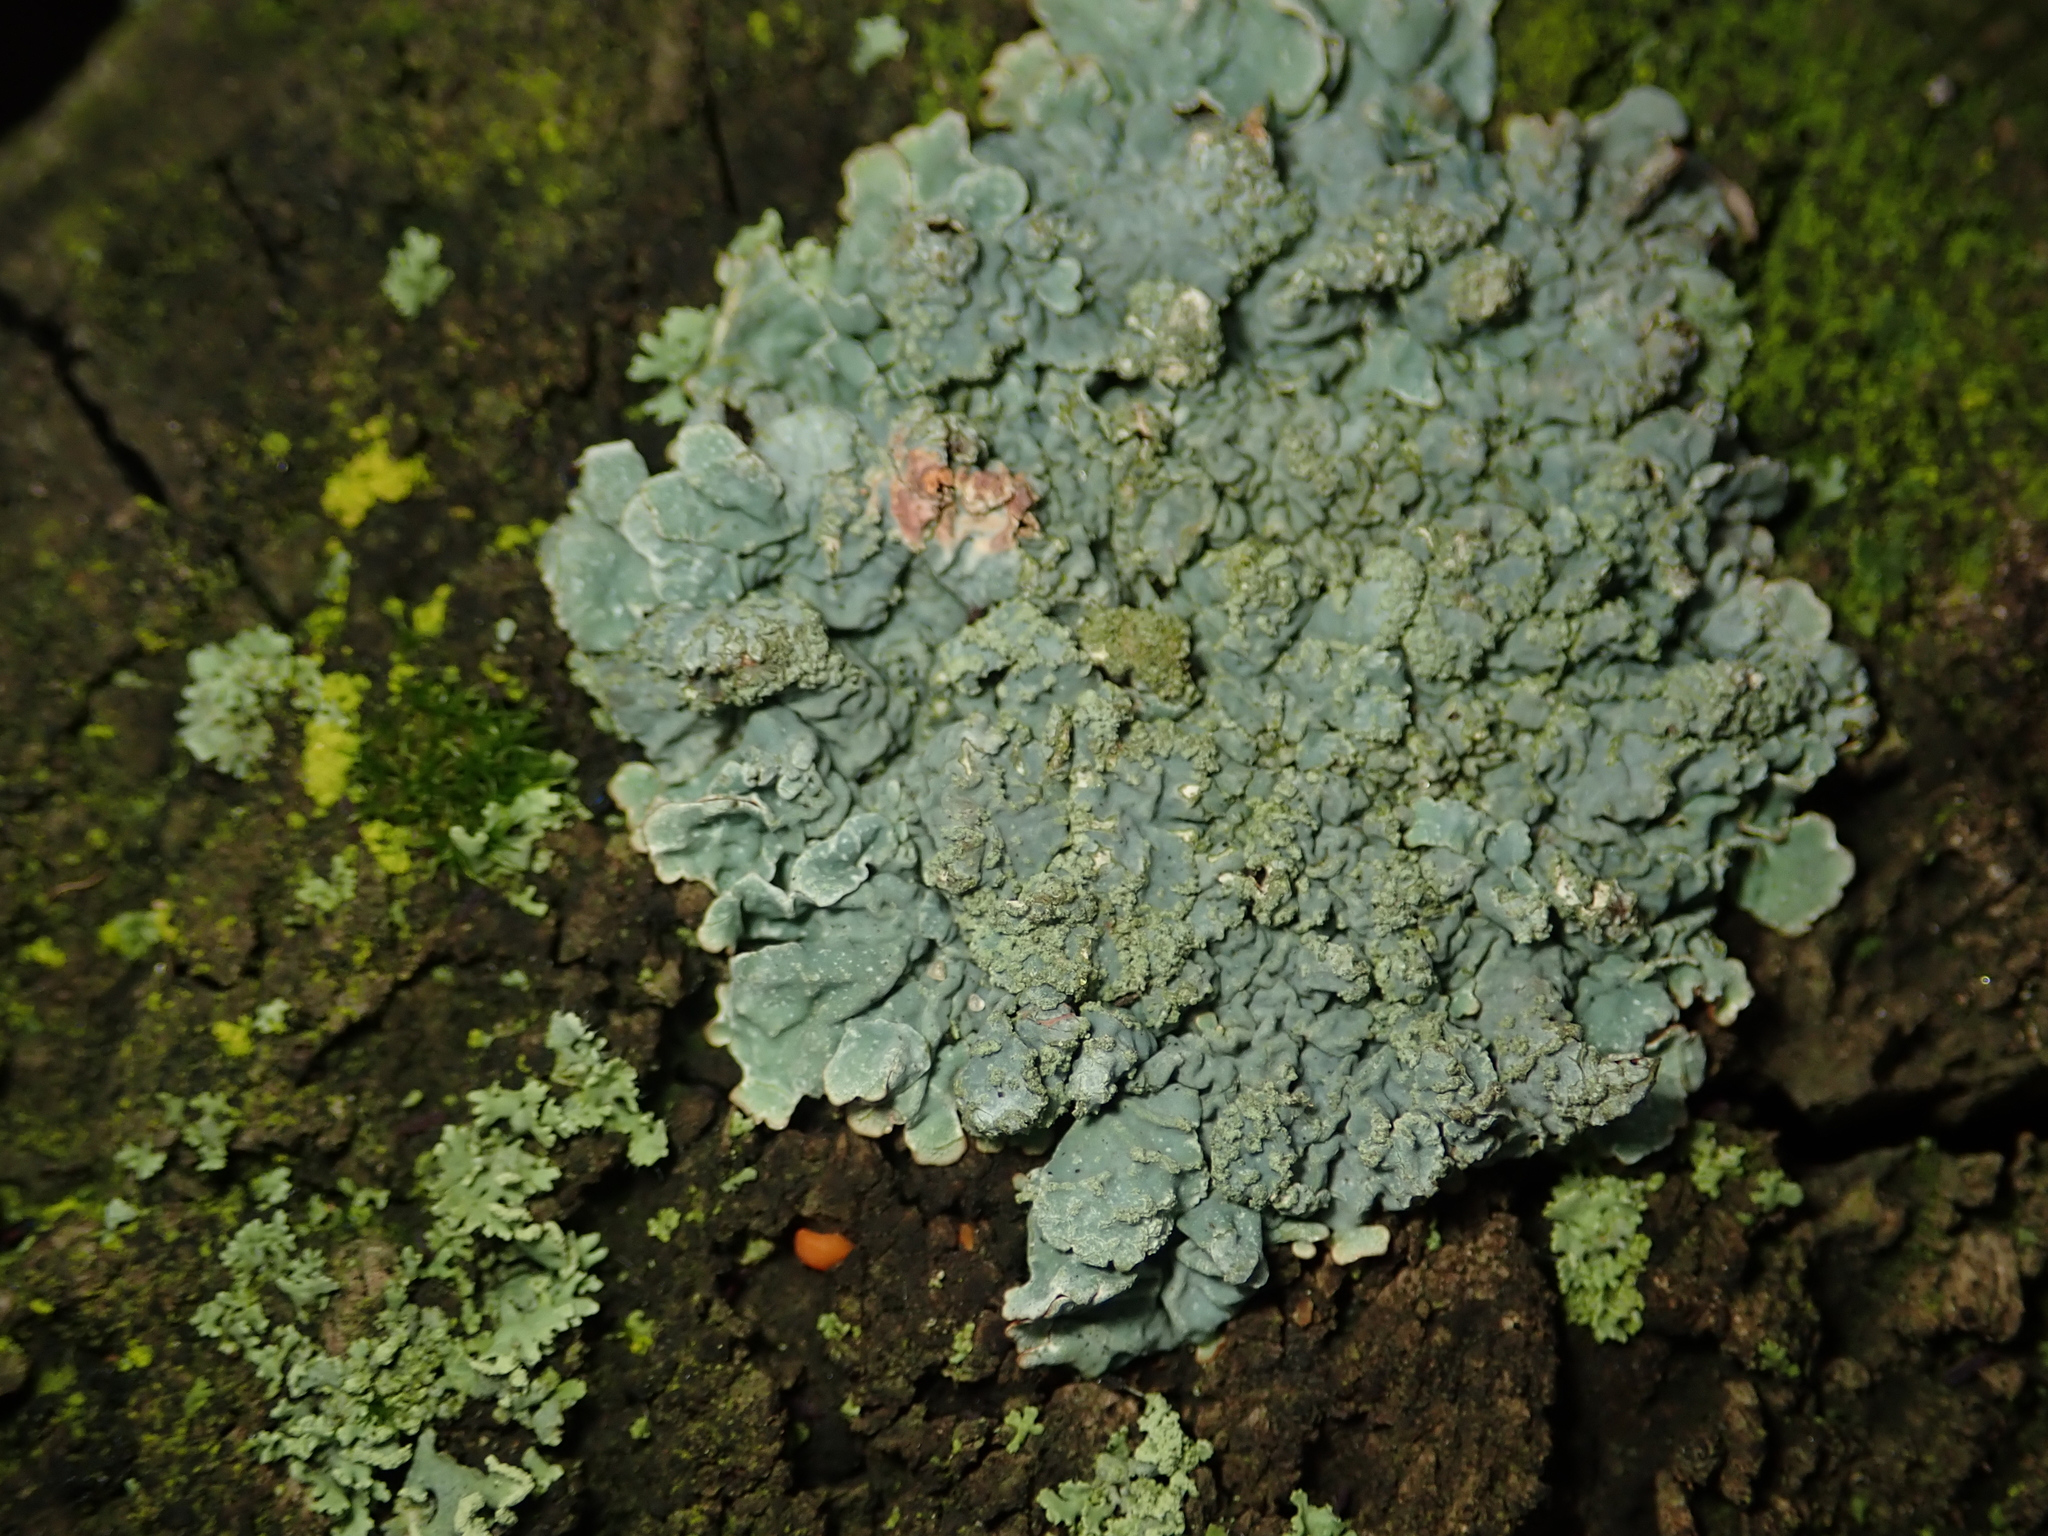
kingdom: Fungi
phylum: Ascomycota
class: Lecanoromycetes
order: Lecanorales
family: Parmeliaceae
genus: Parmelia
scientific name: Parmelia sulcata
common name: Netted shield lichen
